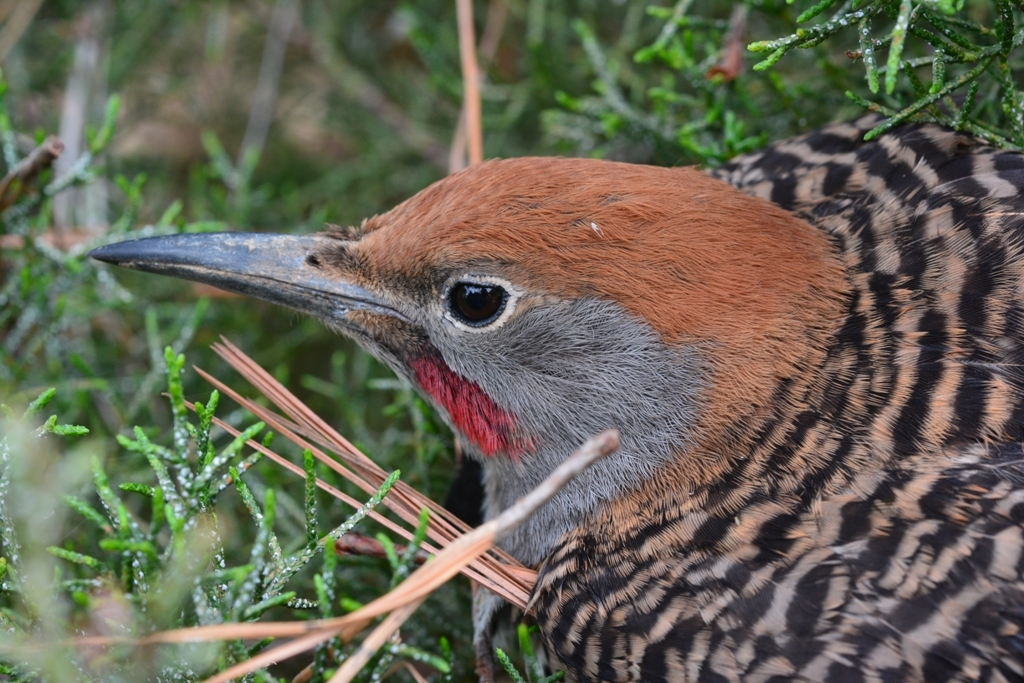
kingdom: Animalia
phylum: Chordata
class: Aves
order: Piciformes
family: Picidae
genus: Colaptes
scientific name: Colaptes auratus
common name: Northern flicker
